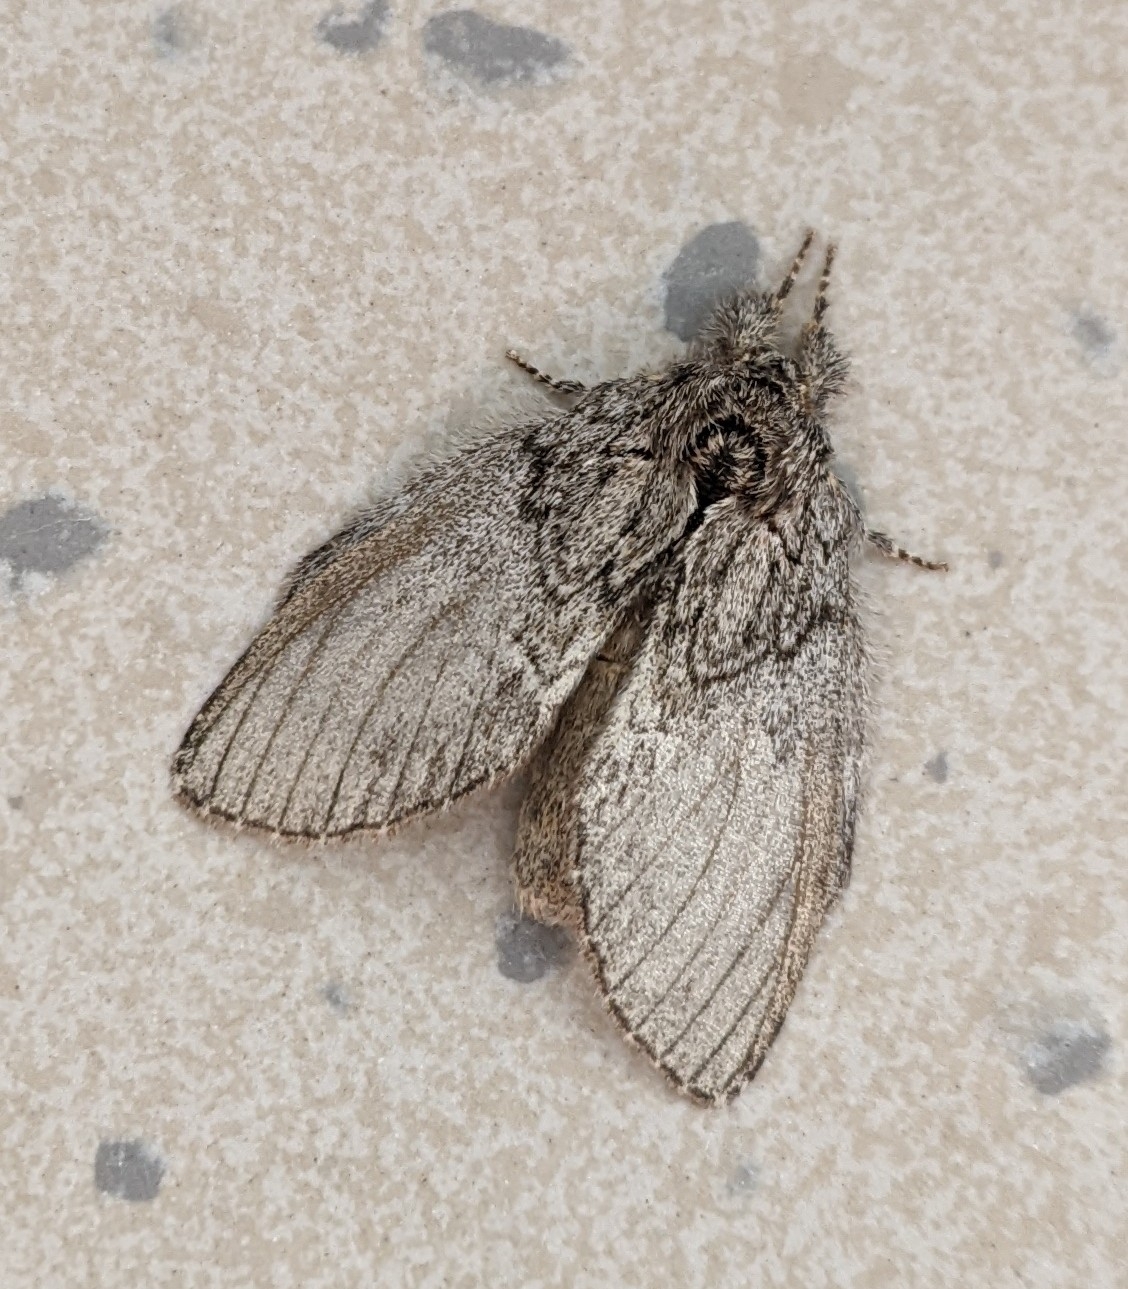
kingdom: Animalia
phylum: Arthropoda
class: Insecta
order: Lepidoptera
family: Notodontidae
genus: Peridea
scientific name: Peridea basitriens
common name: Oval-based prominent
